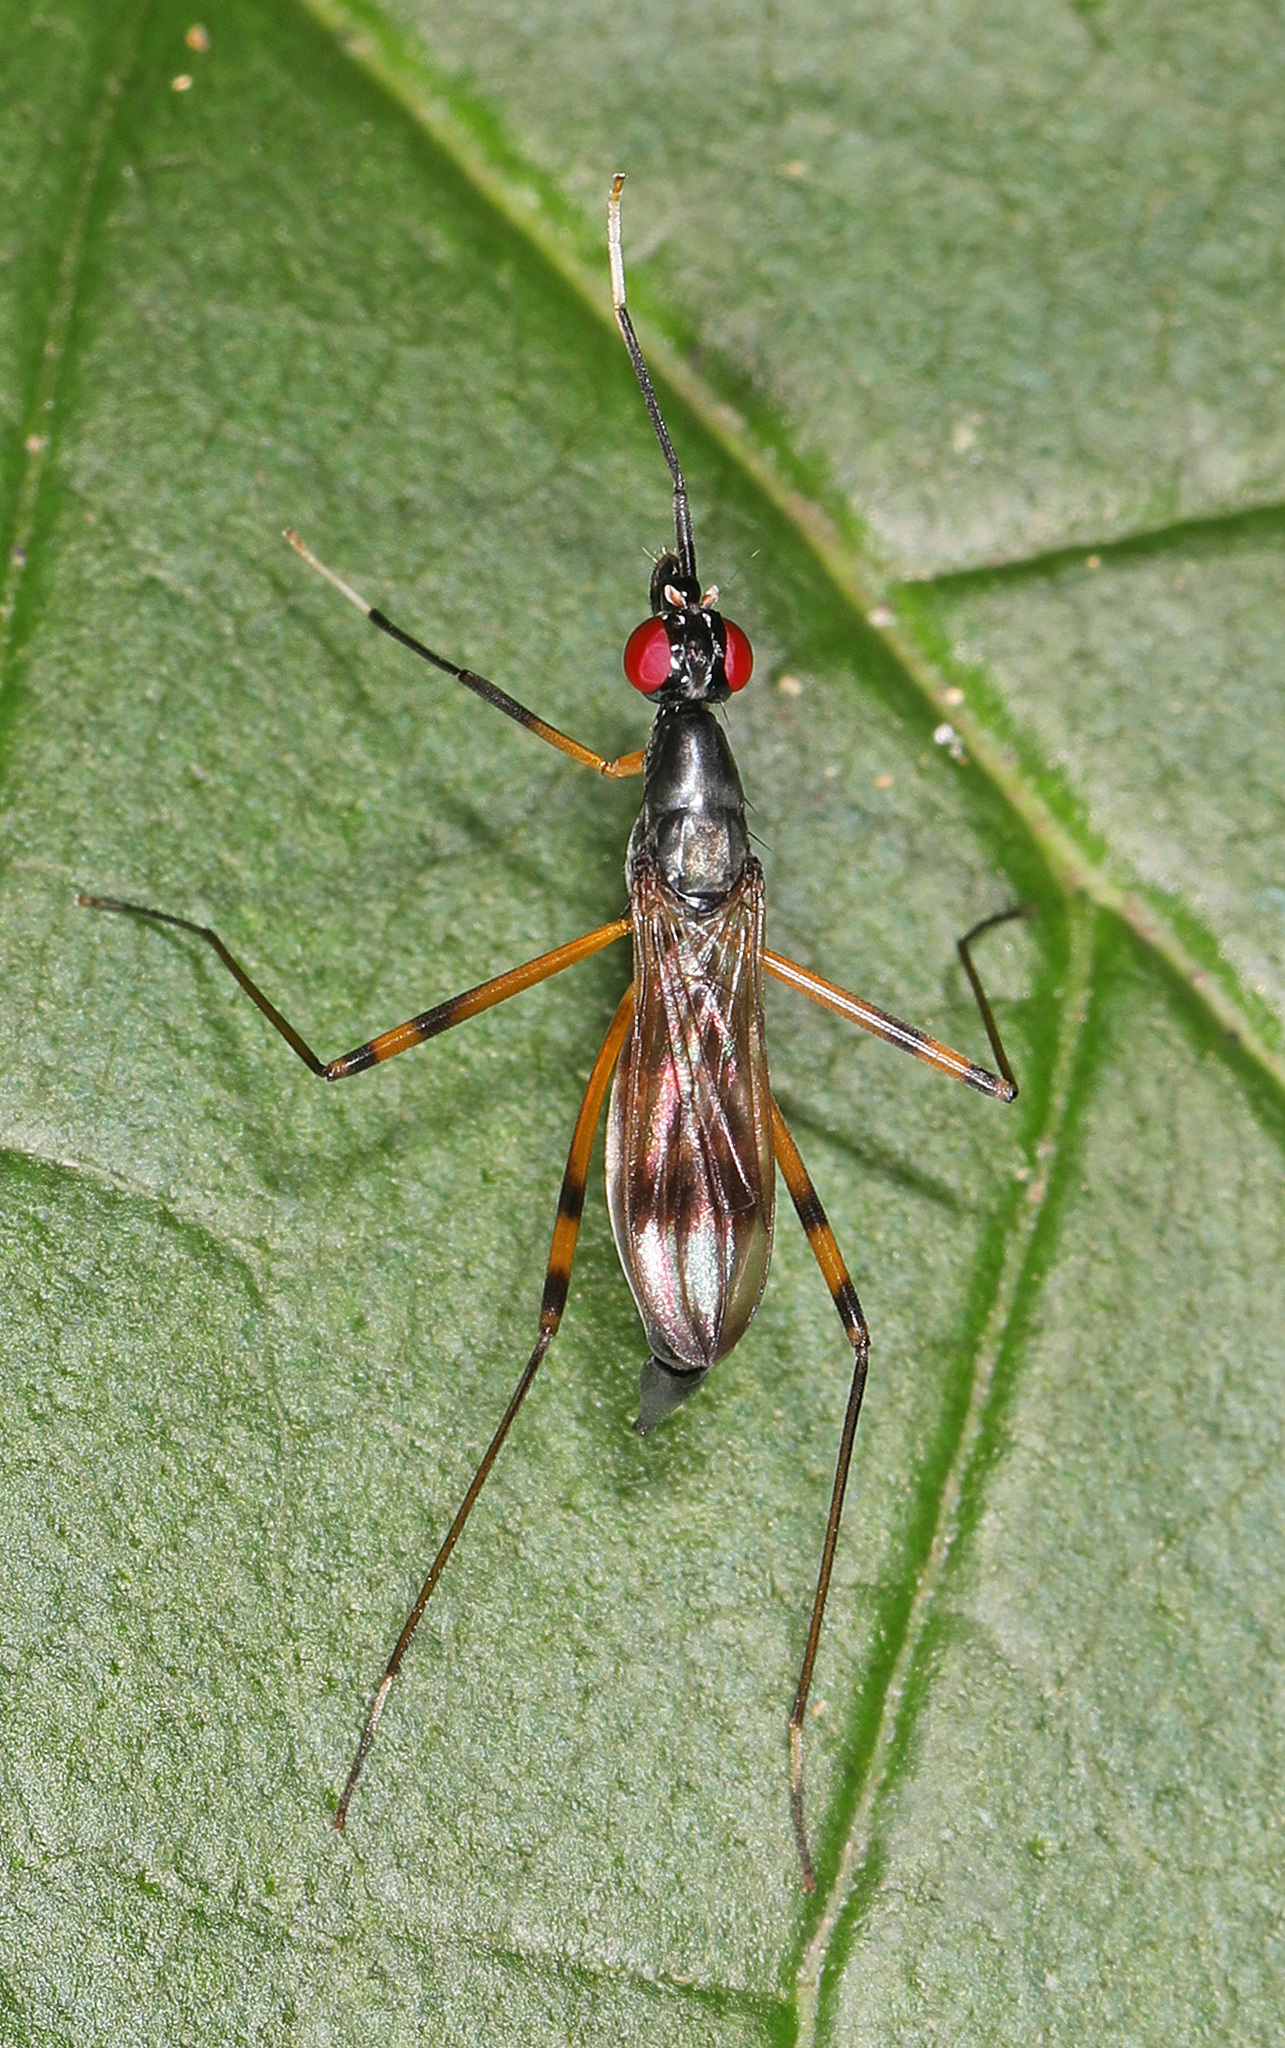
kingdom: Animalia
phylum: Arthropoda
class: Insecta
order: Diptera
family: Micropezidae
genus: Rainieria
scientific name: Rainieria antennaepes
